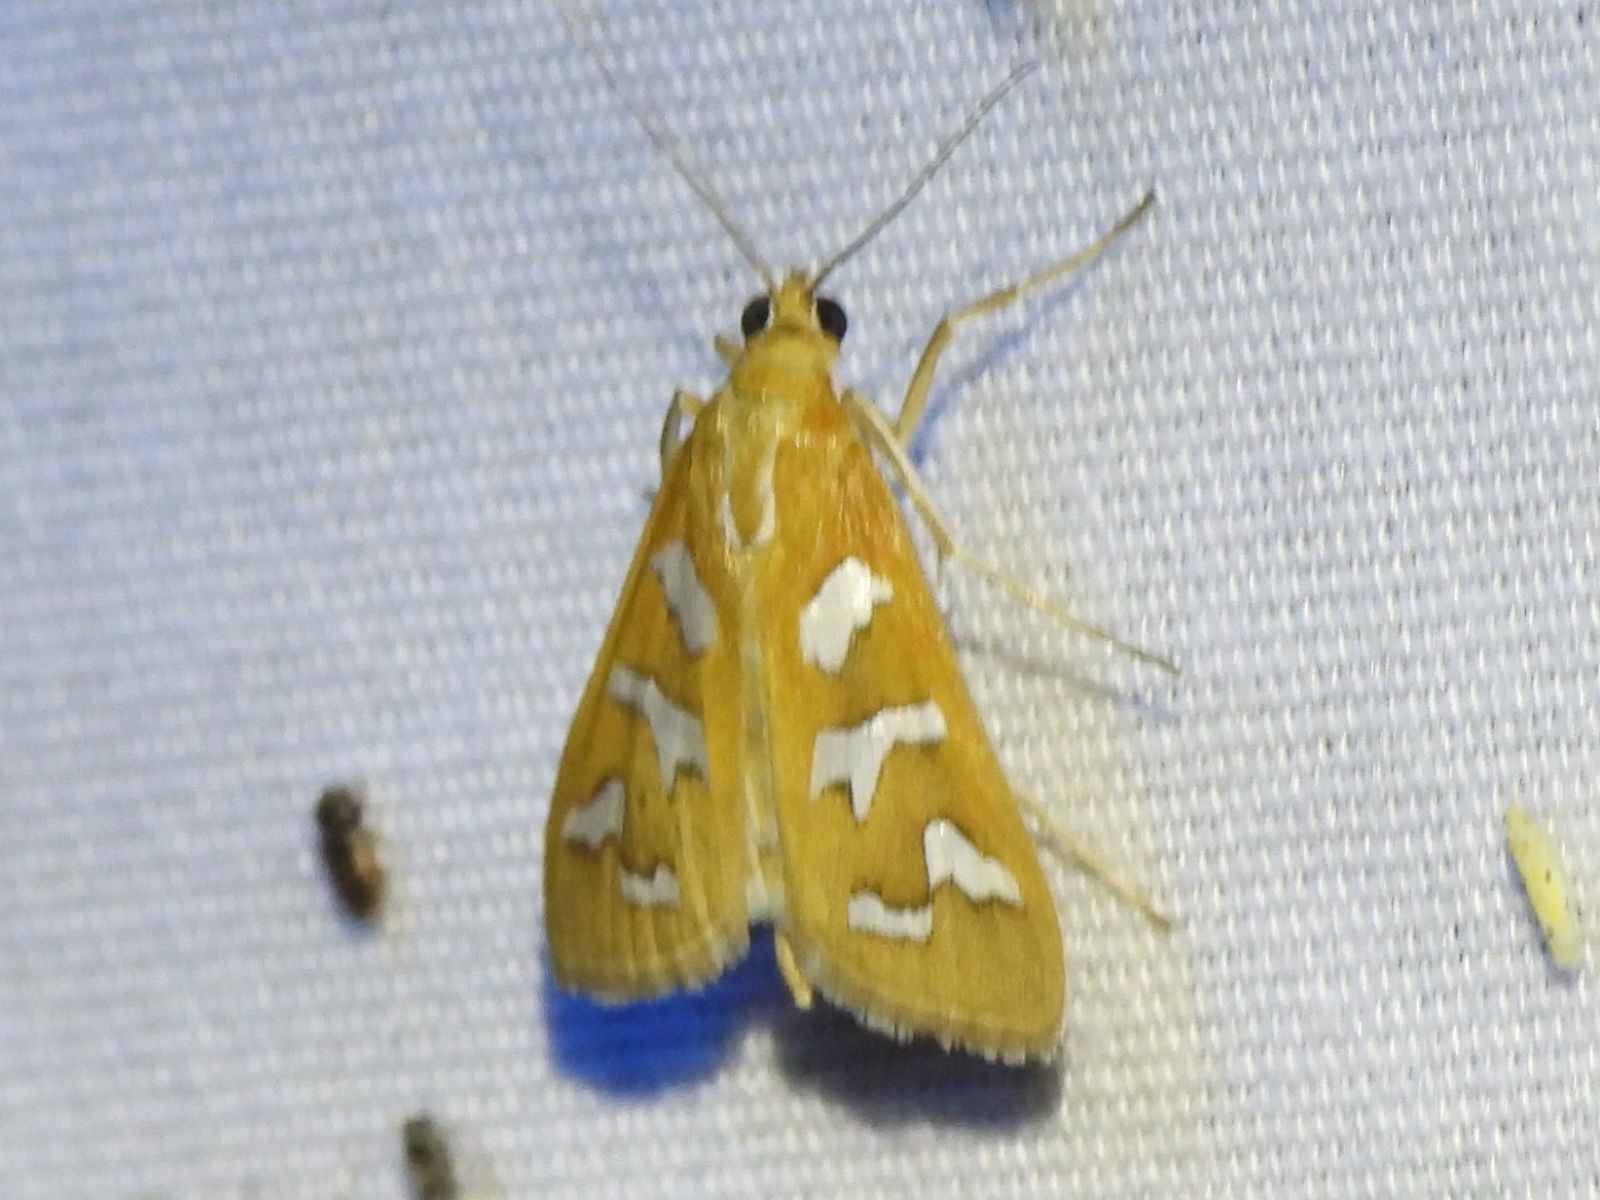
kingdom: Animalia
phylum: Arthropoda
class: Insecta
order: Lepidoptera
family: Crambidae
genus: Diastictis
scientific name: Diastictis fracturalis
